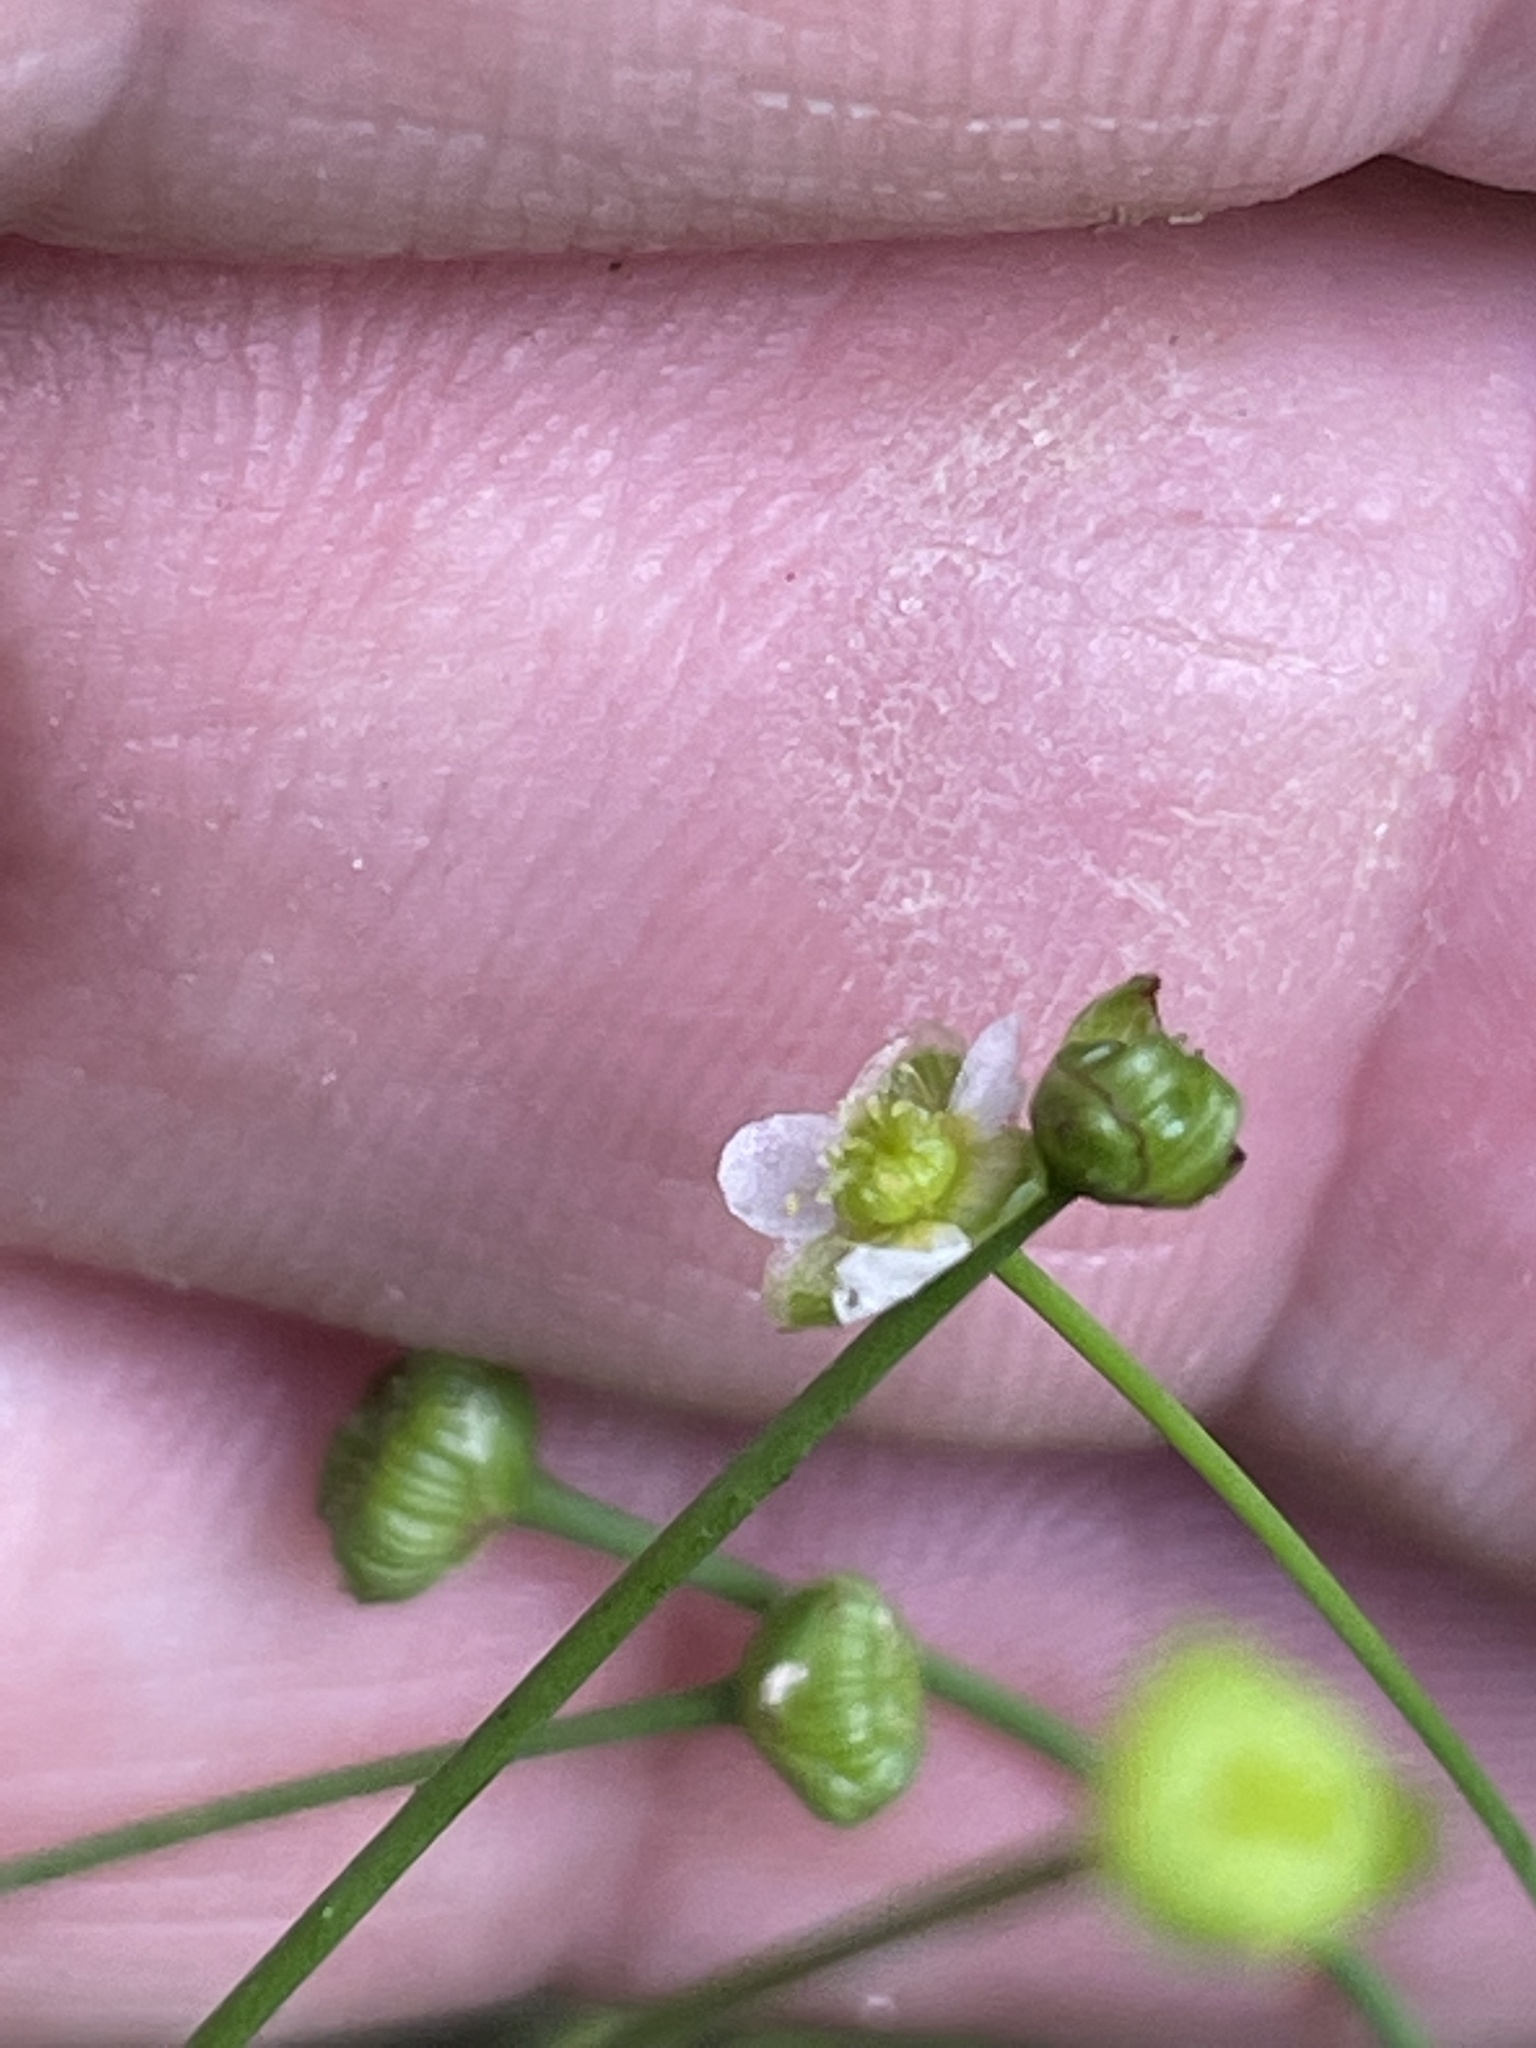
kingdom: Plantae
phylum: Tracheophyta
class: Liliopsida
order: Alismatales
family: Alismataceae
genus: Alisma
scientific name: Alisma subcordatum
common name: Southern water-plantain
